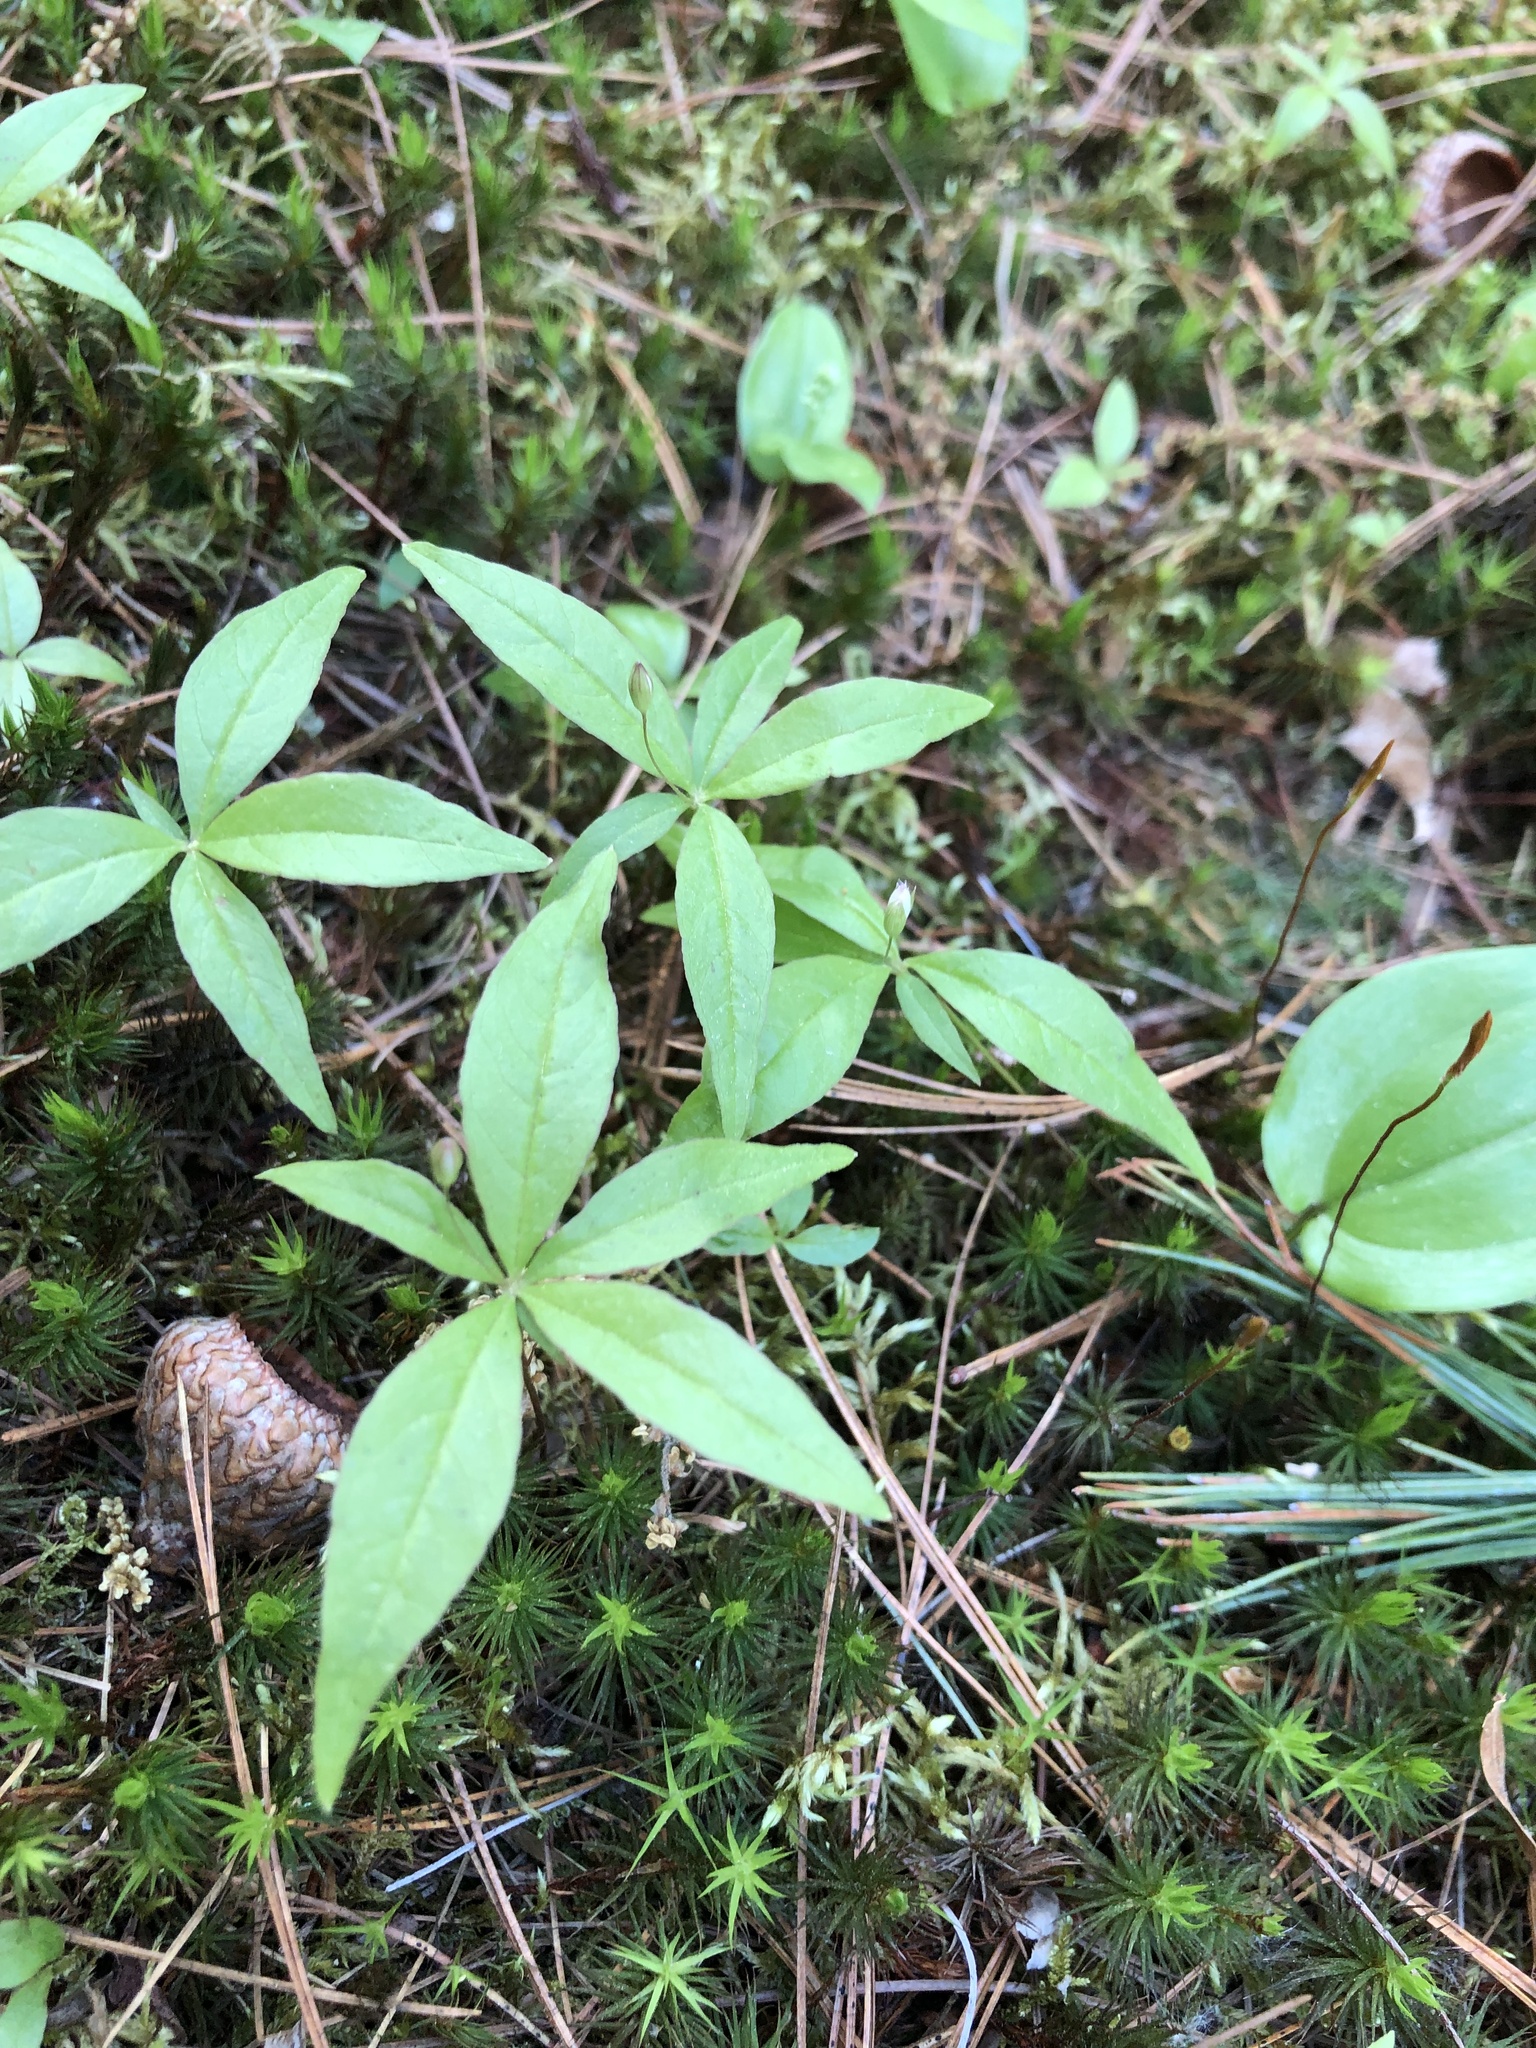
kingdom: Plantae
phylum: Tracheophyta
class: Magnoliopsida
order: Ericales
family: Primulaceae
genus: Lysimachia
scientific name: Lysimachia borealis
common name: American starflower
